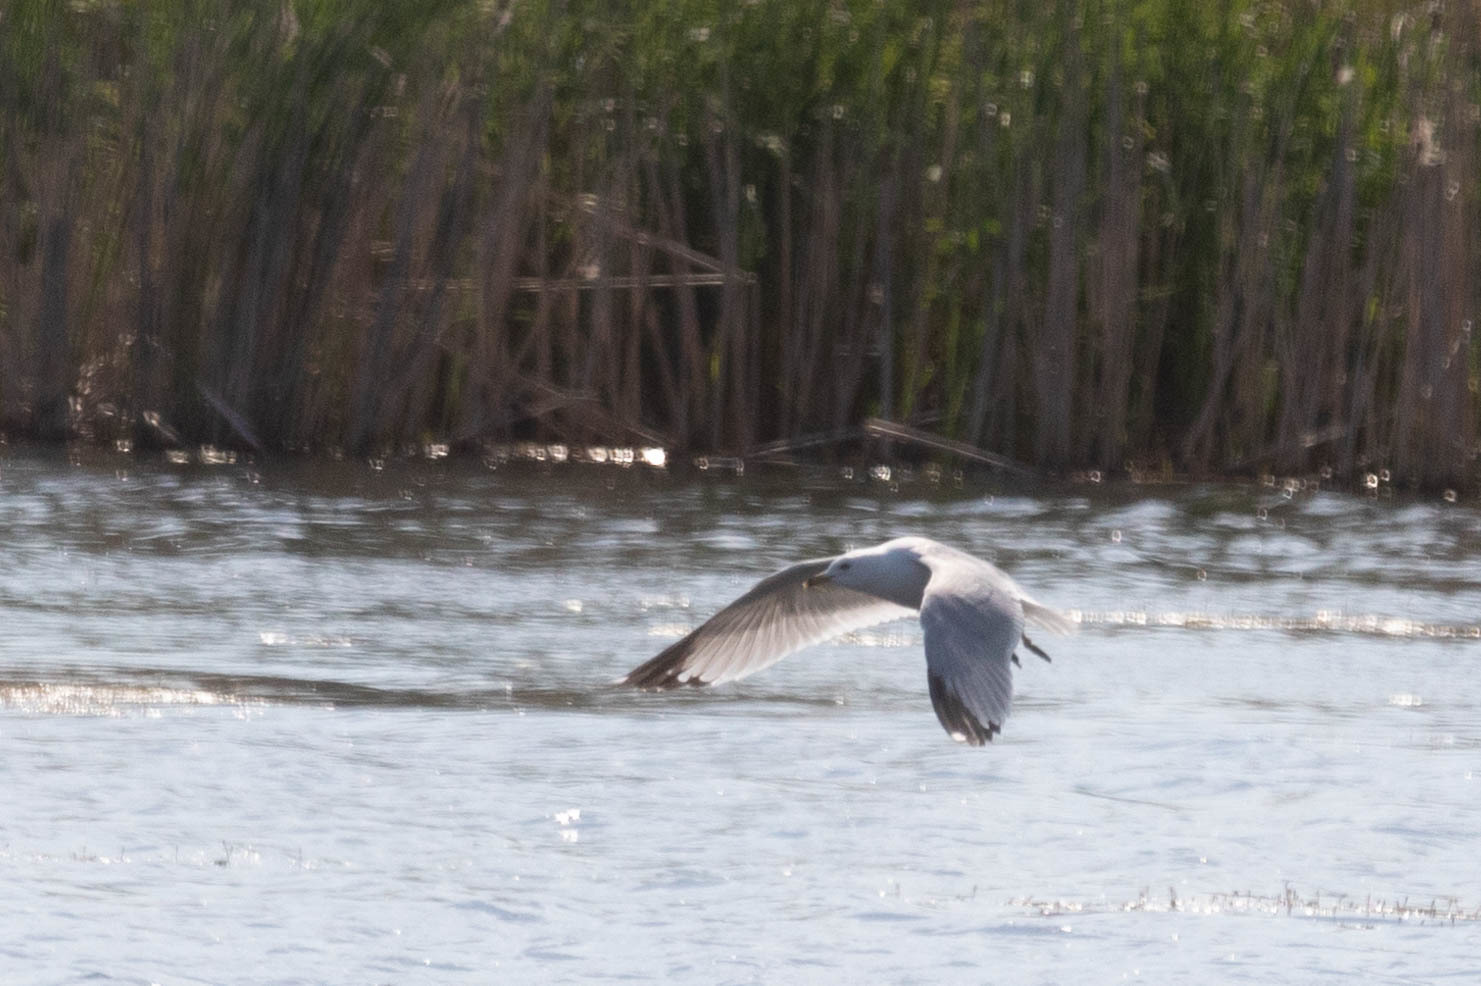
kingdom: Animalia
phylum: Chordata
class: Aves
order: Charadriiformes
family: Laridae
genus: Larus
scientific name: Larus delawarensis
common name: Ring-billed gull
